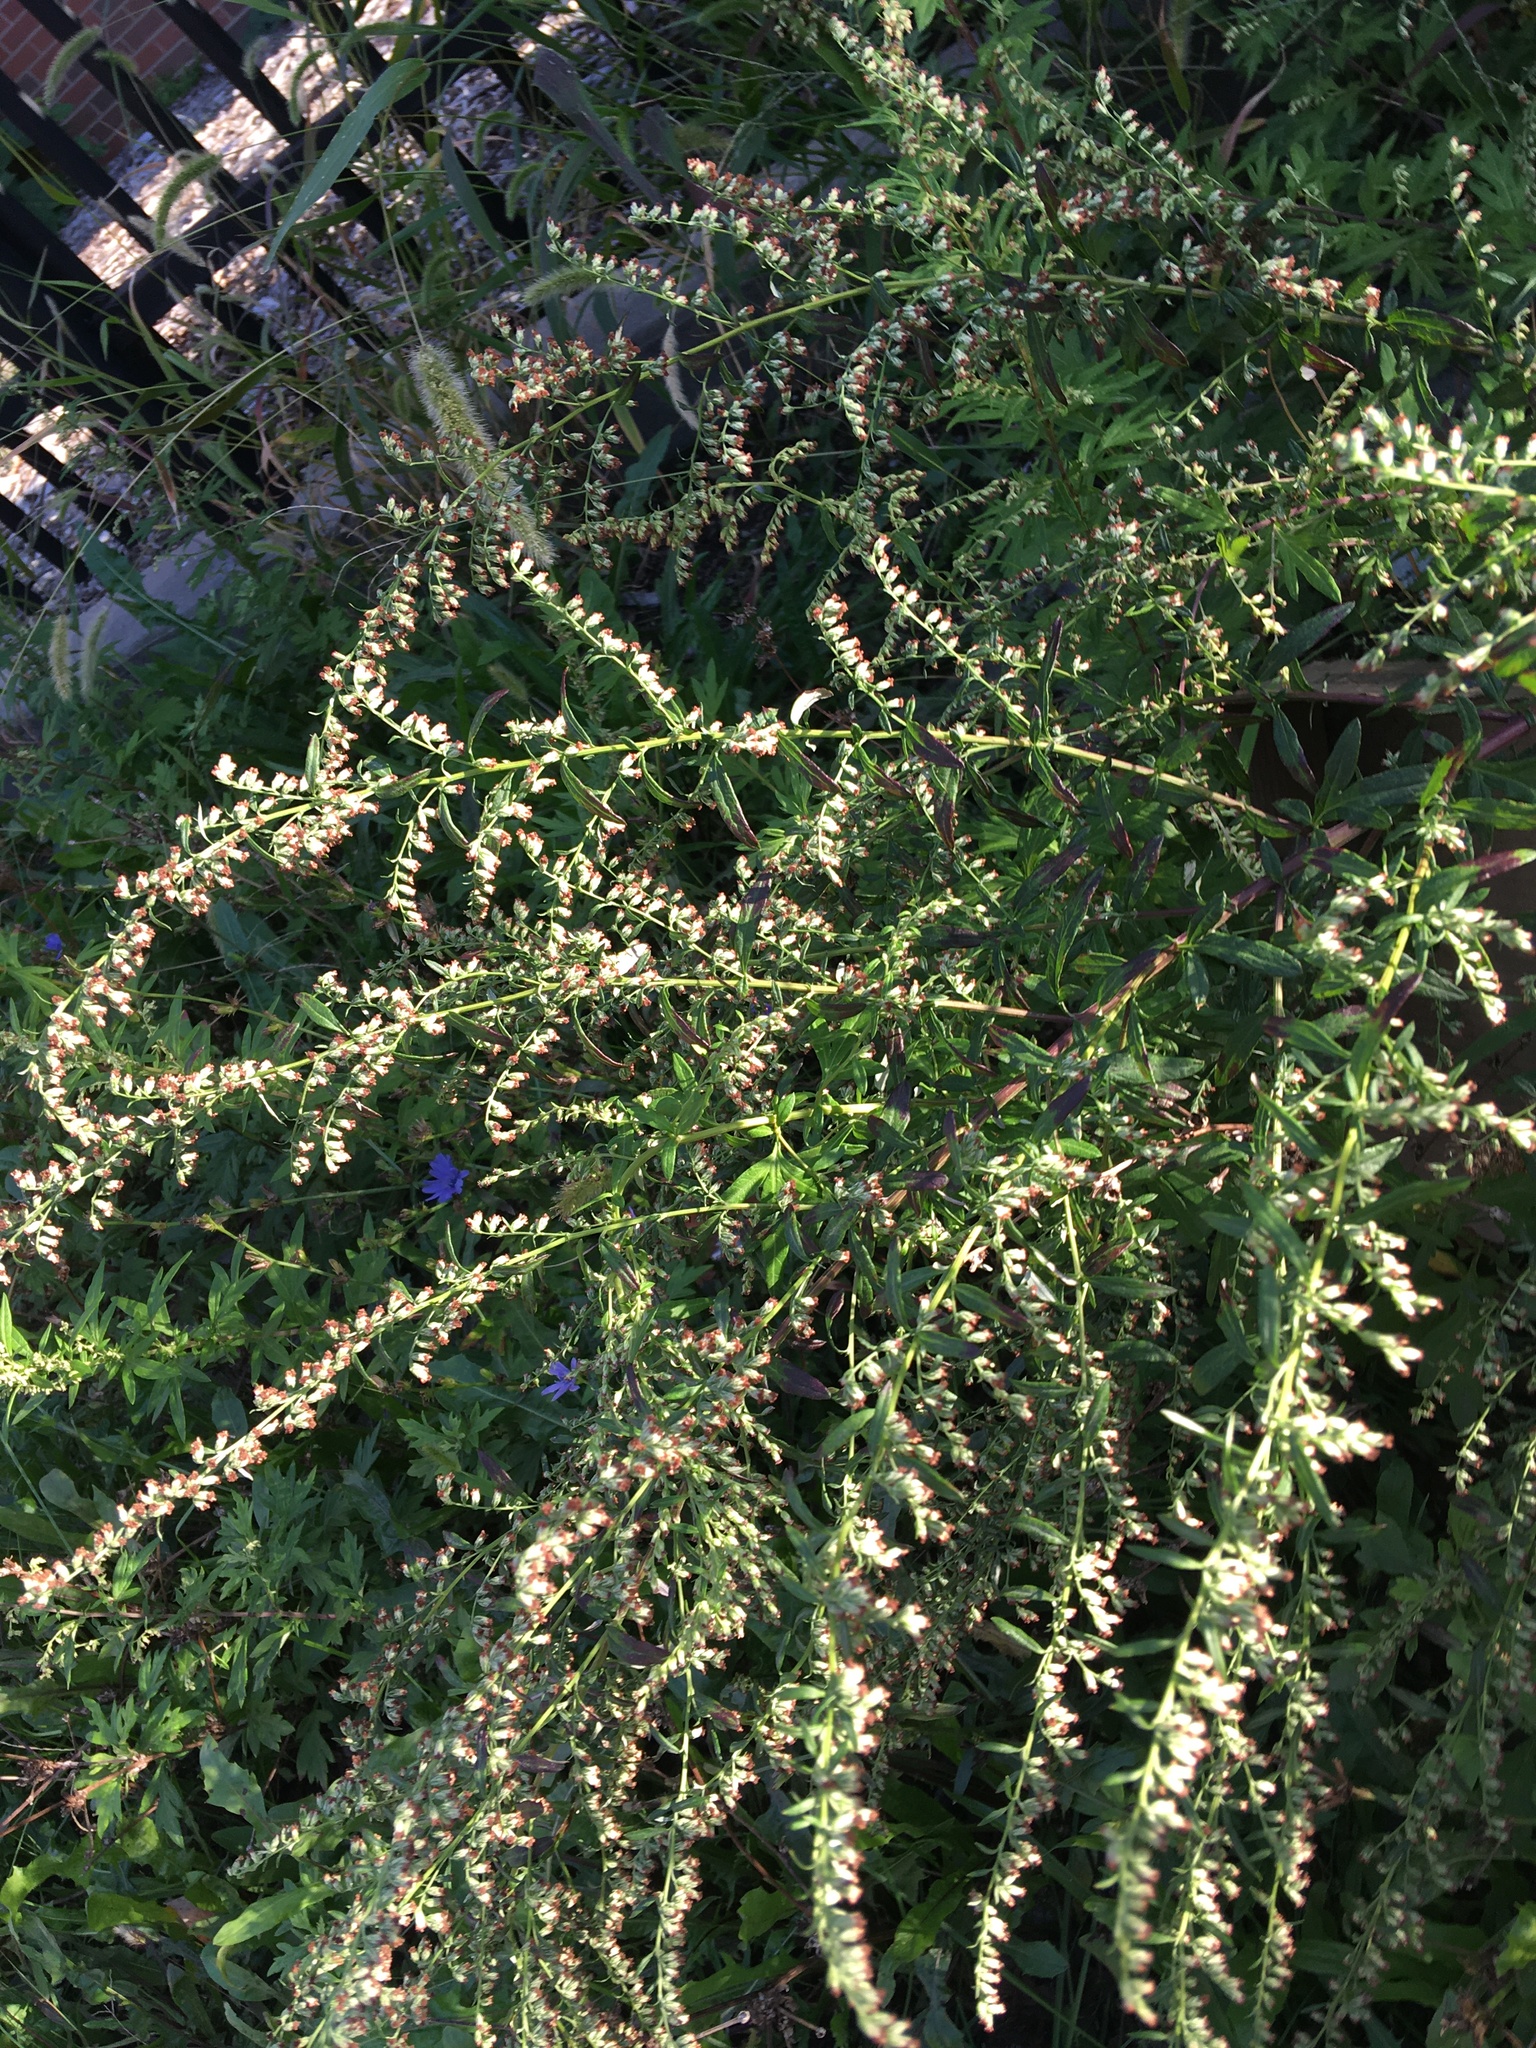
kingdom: Plantae
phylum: Tracheophyta
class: Magnoliopsida
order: Asterales
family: Asteraceae
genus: Artemisia
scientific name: Artemisia vulgaris
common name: Mugwort
